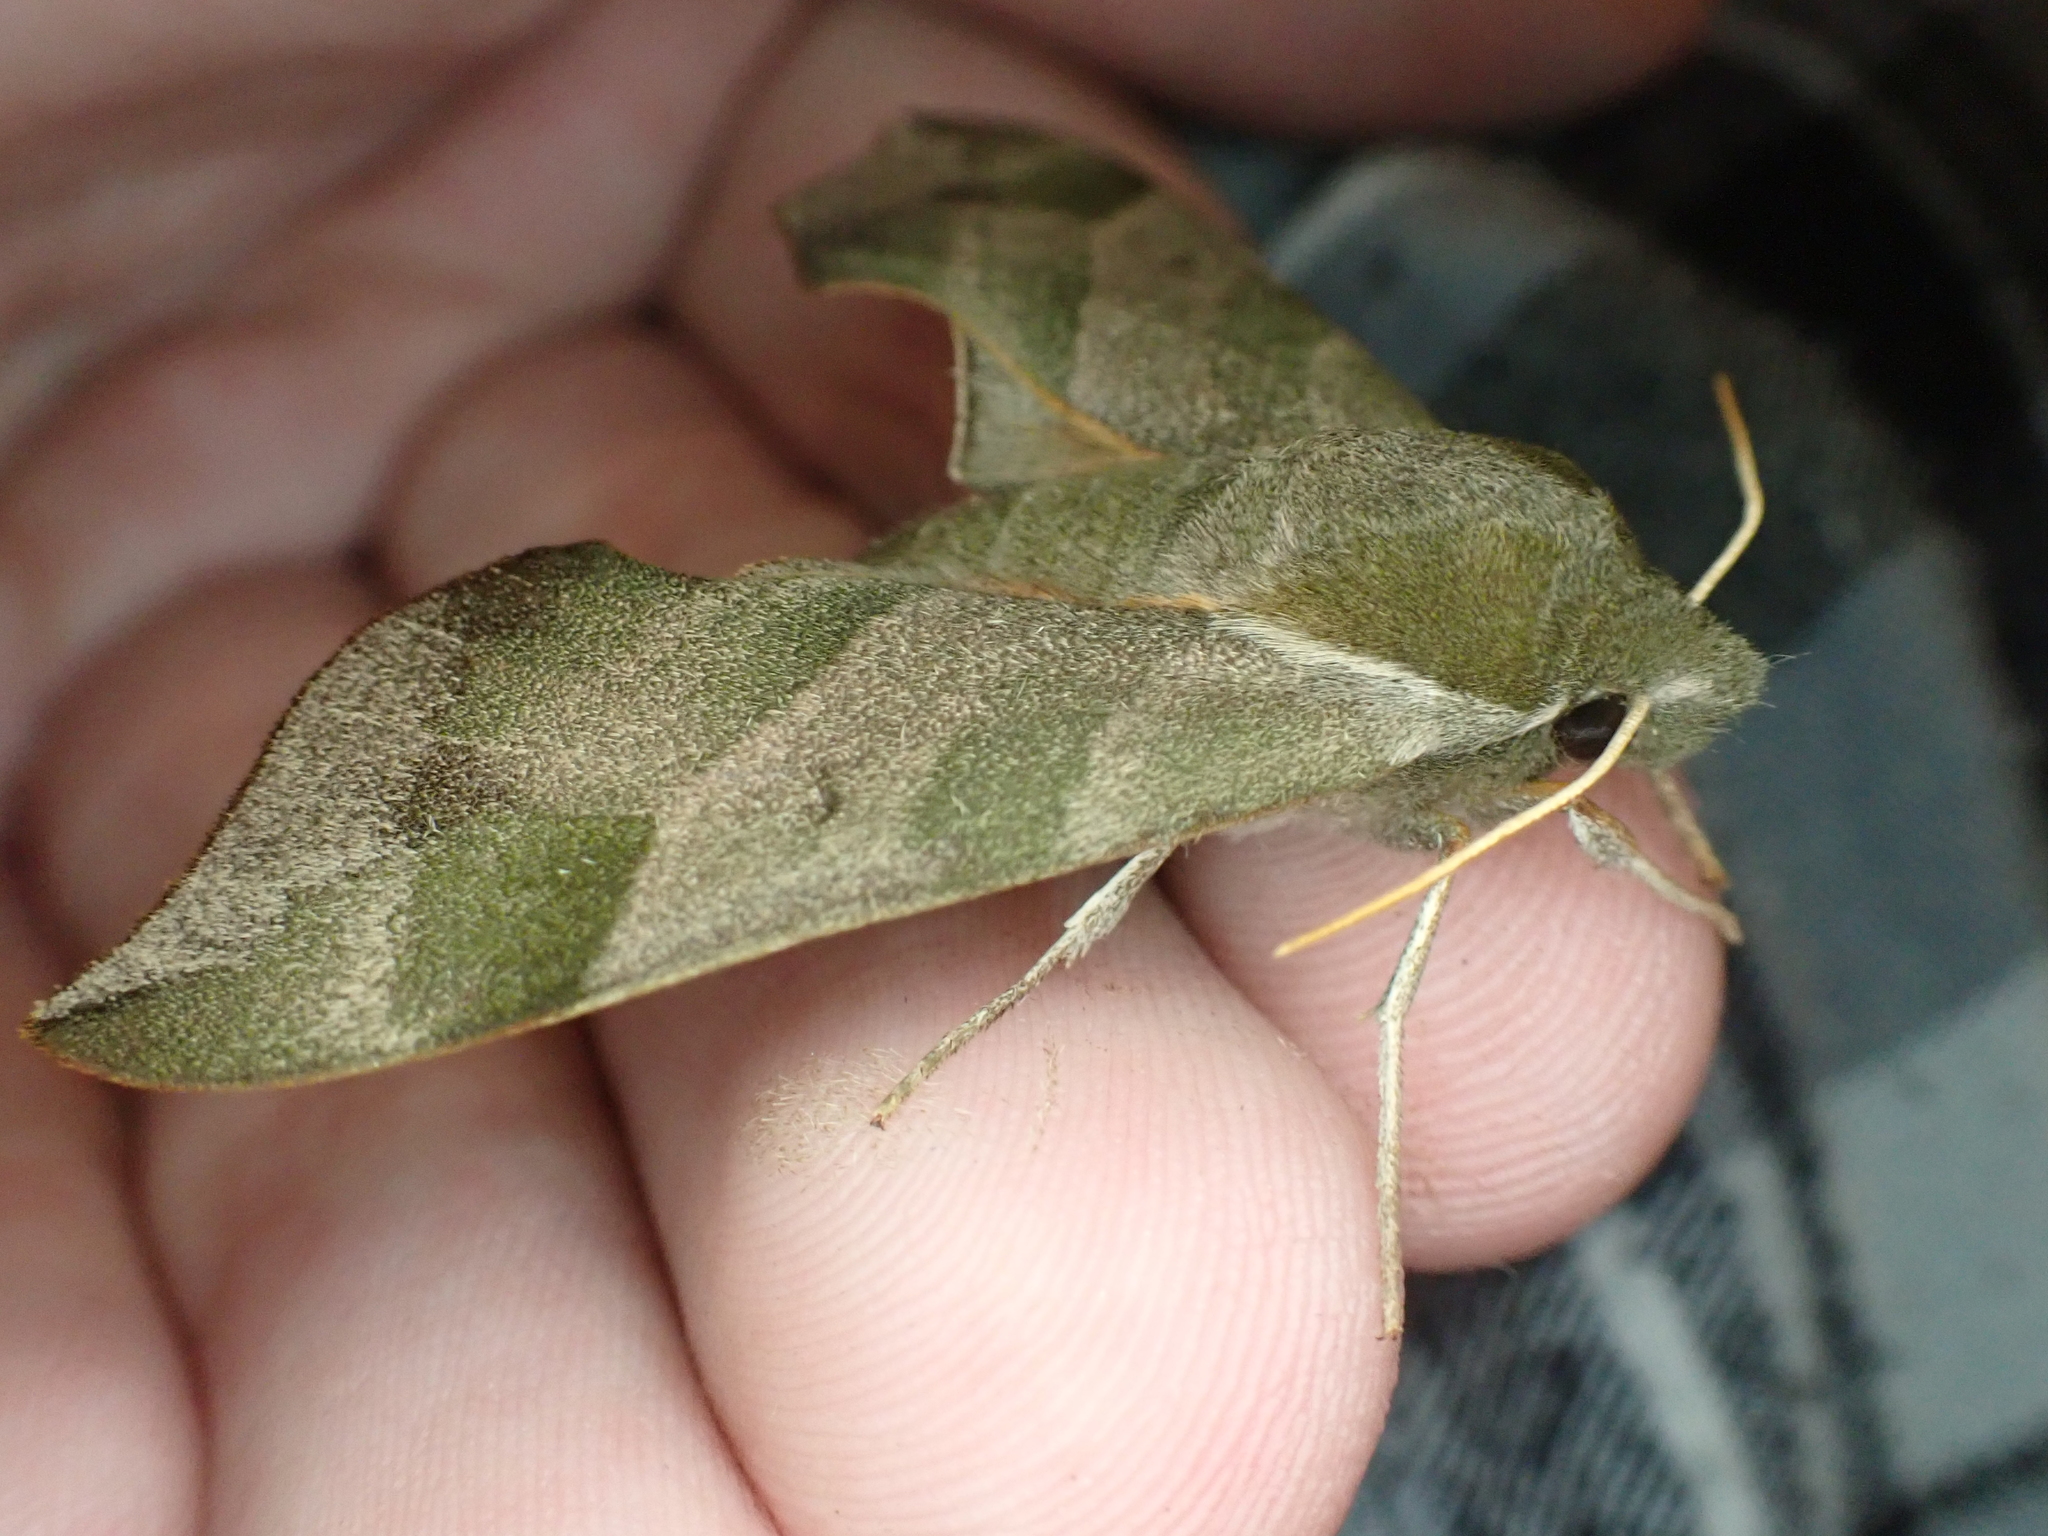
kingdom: Animalia
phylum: Arthropoda
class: Insecta
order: Lepidoptera
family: Sphingidae
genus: Darapsa
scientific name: Darapsa myron
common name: Hog sphinx
